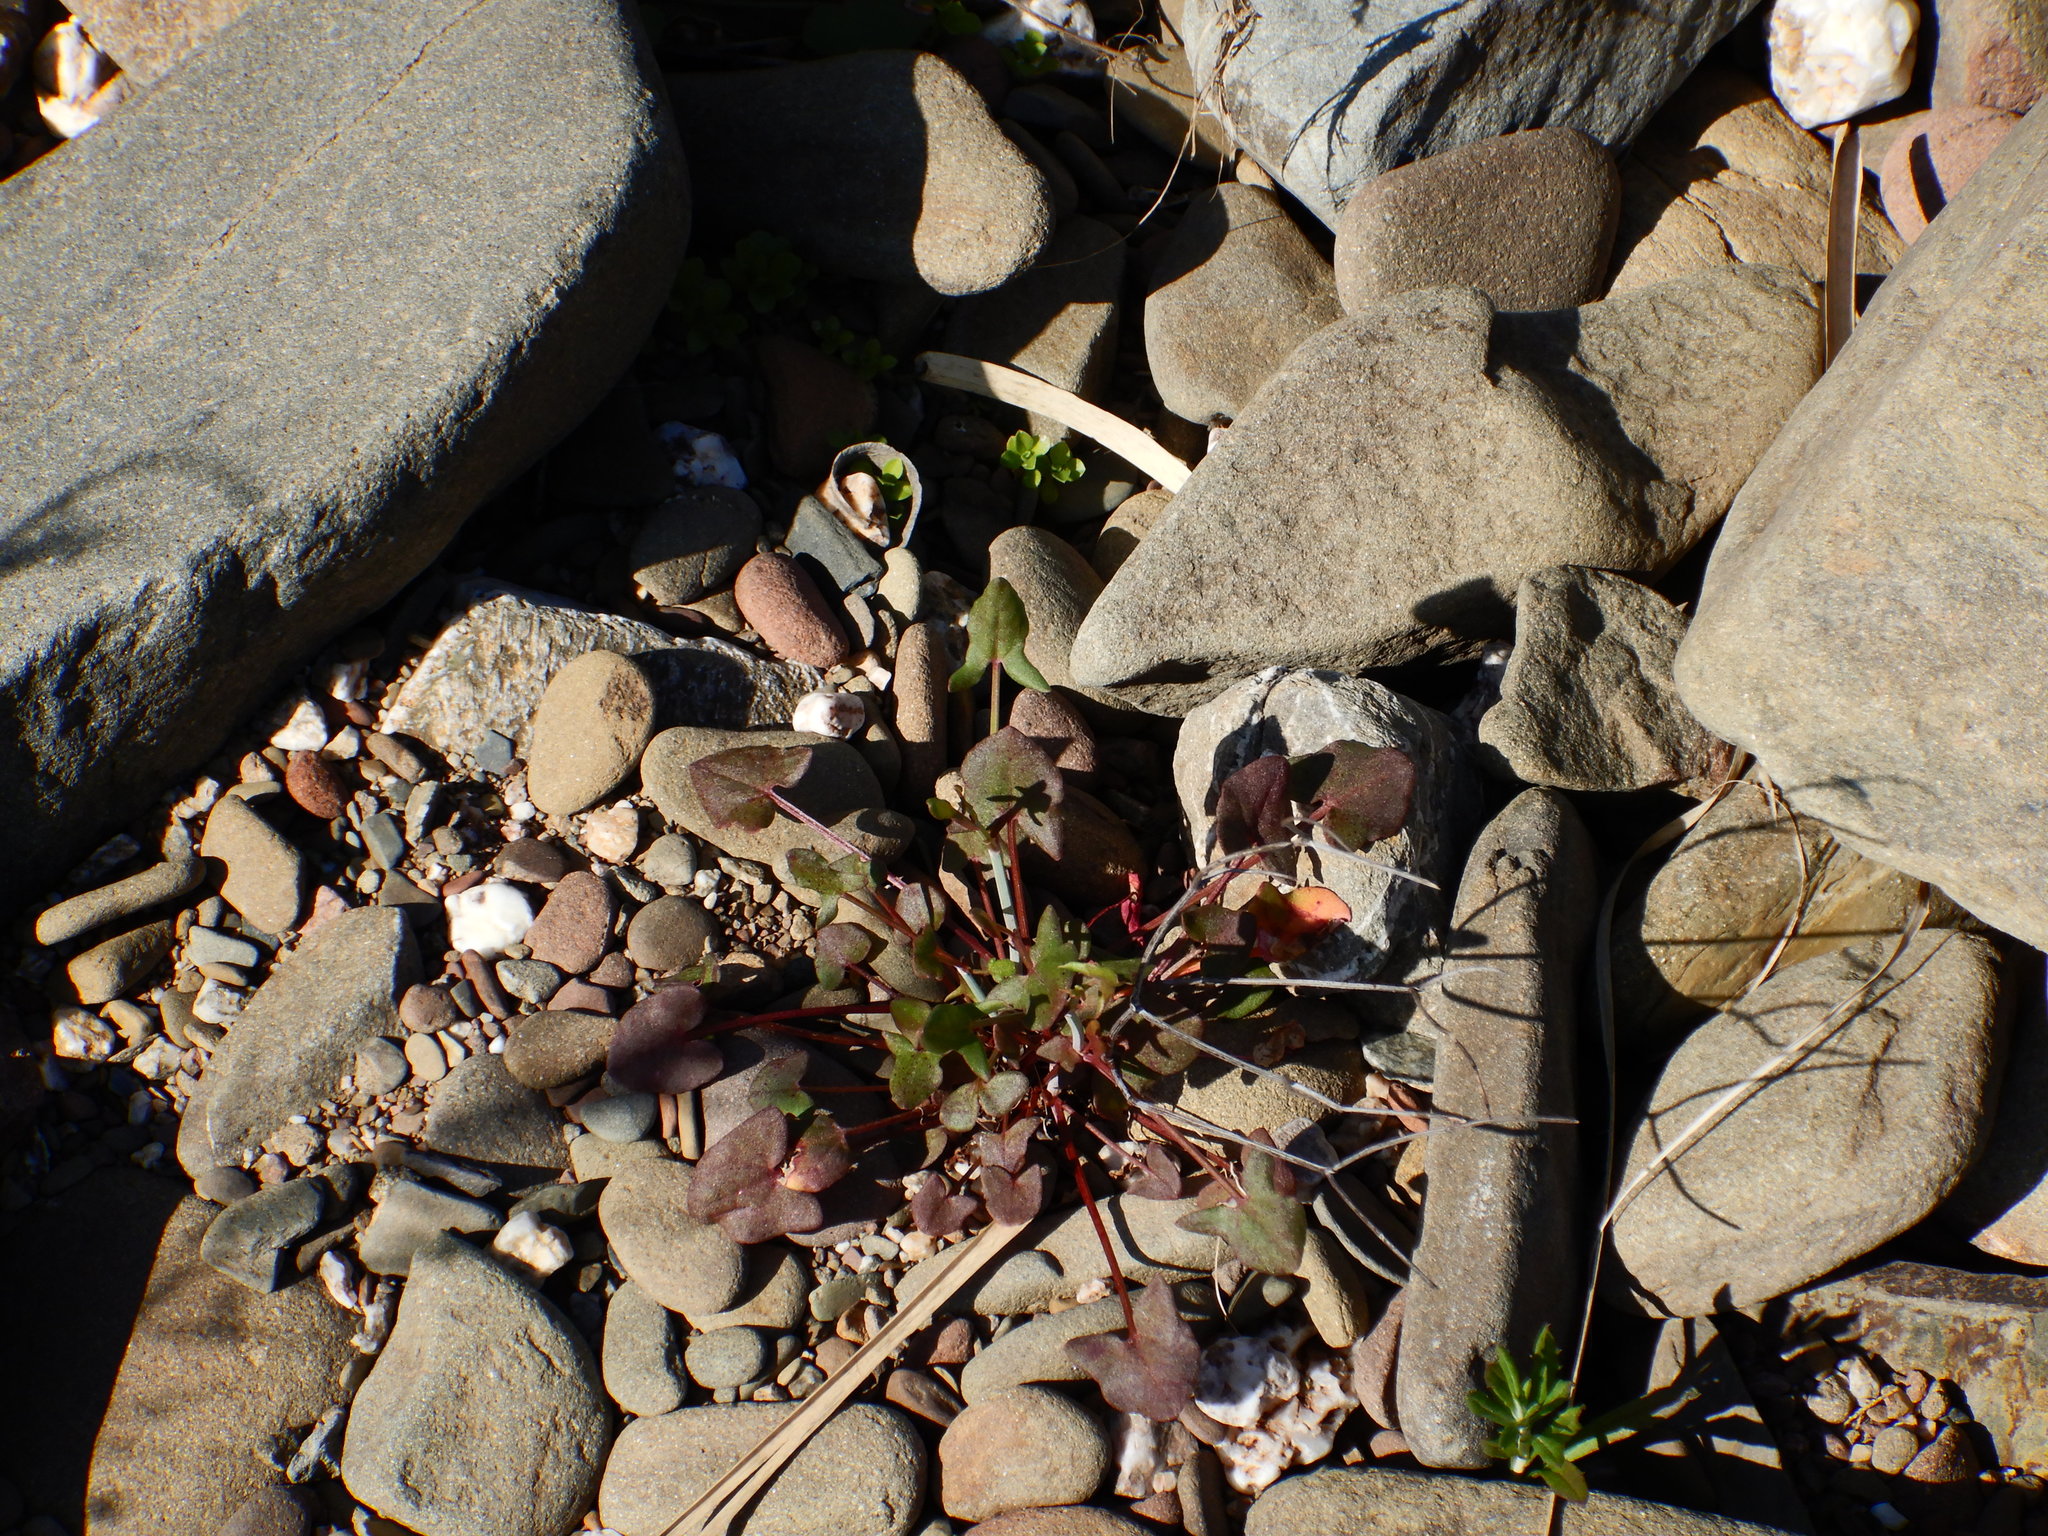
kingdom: Plantae
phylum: Tracheophyta
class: Magnoliopsida
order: Caryophyllales
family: Polygonaceae
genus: Rumex
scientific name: Rumex induratus
